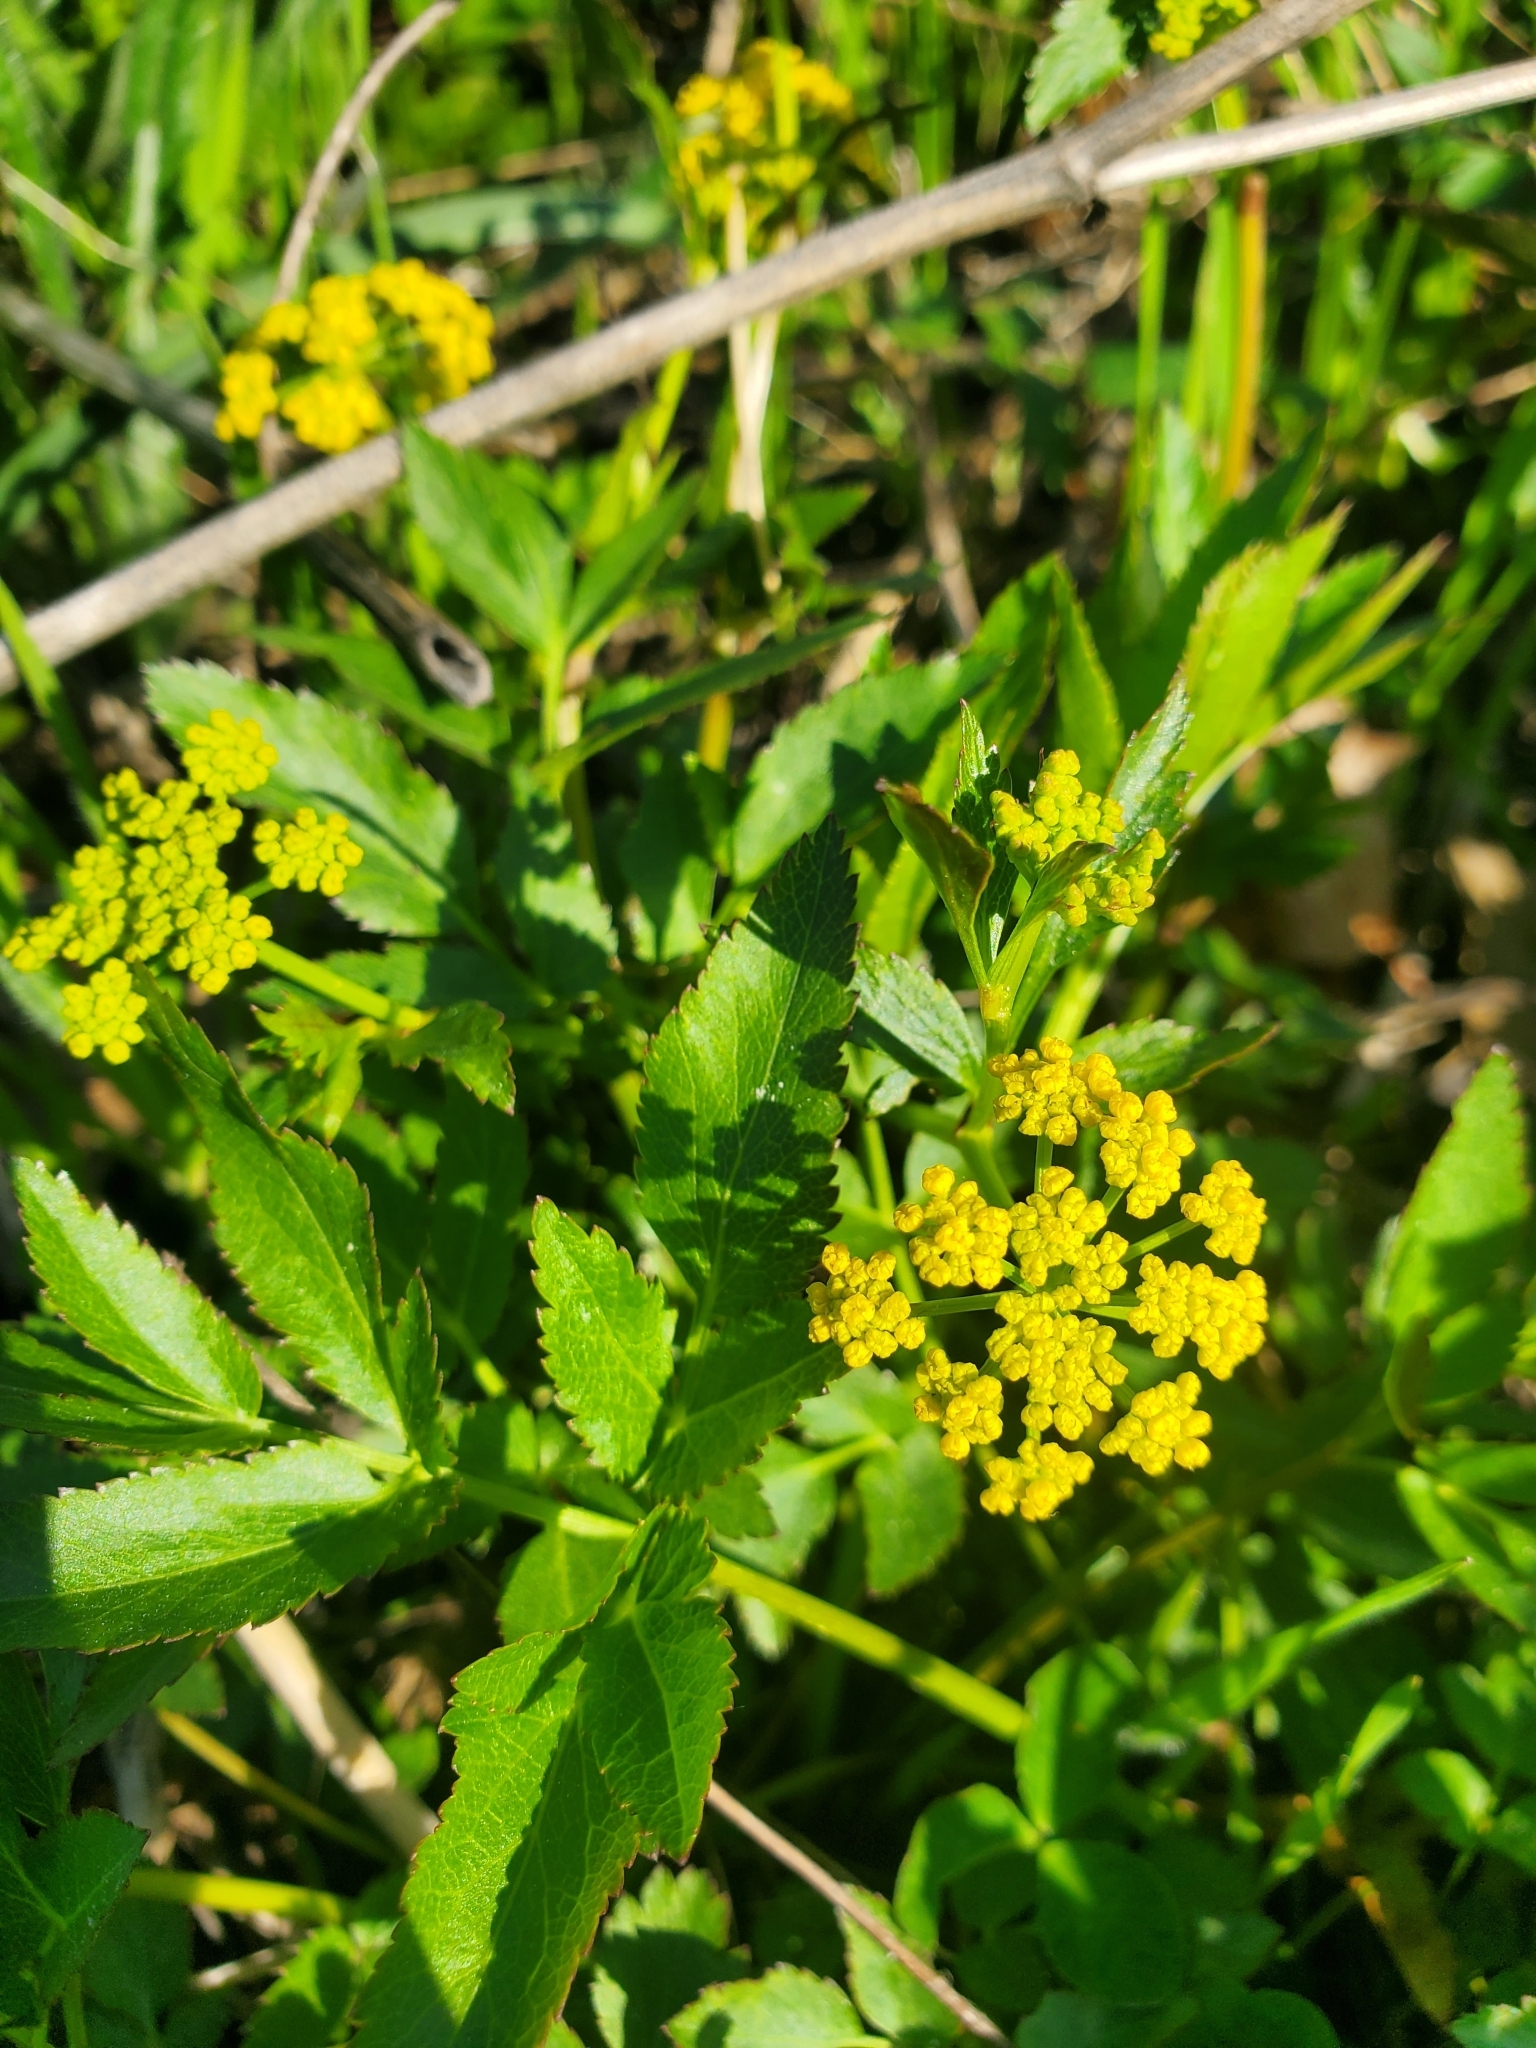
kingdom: Plantae
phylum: Tracheophyta
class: Magnoliopsida
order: Apiales
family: Apiaceae
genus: Zizia
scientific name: Zizia aurea
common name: Golden alexanders
